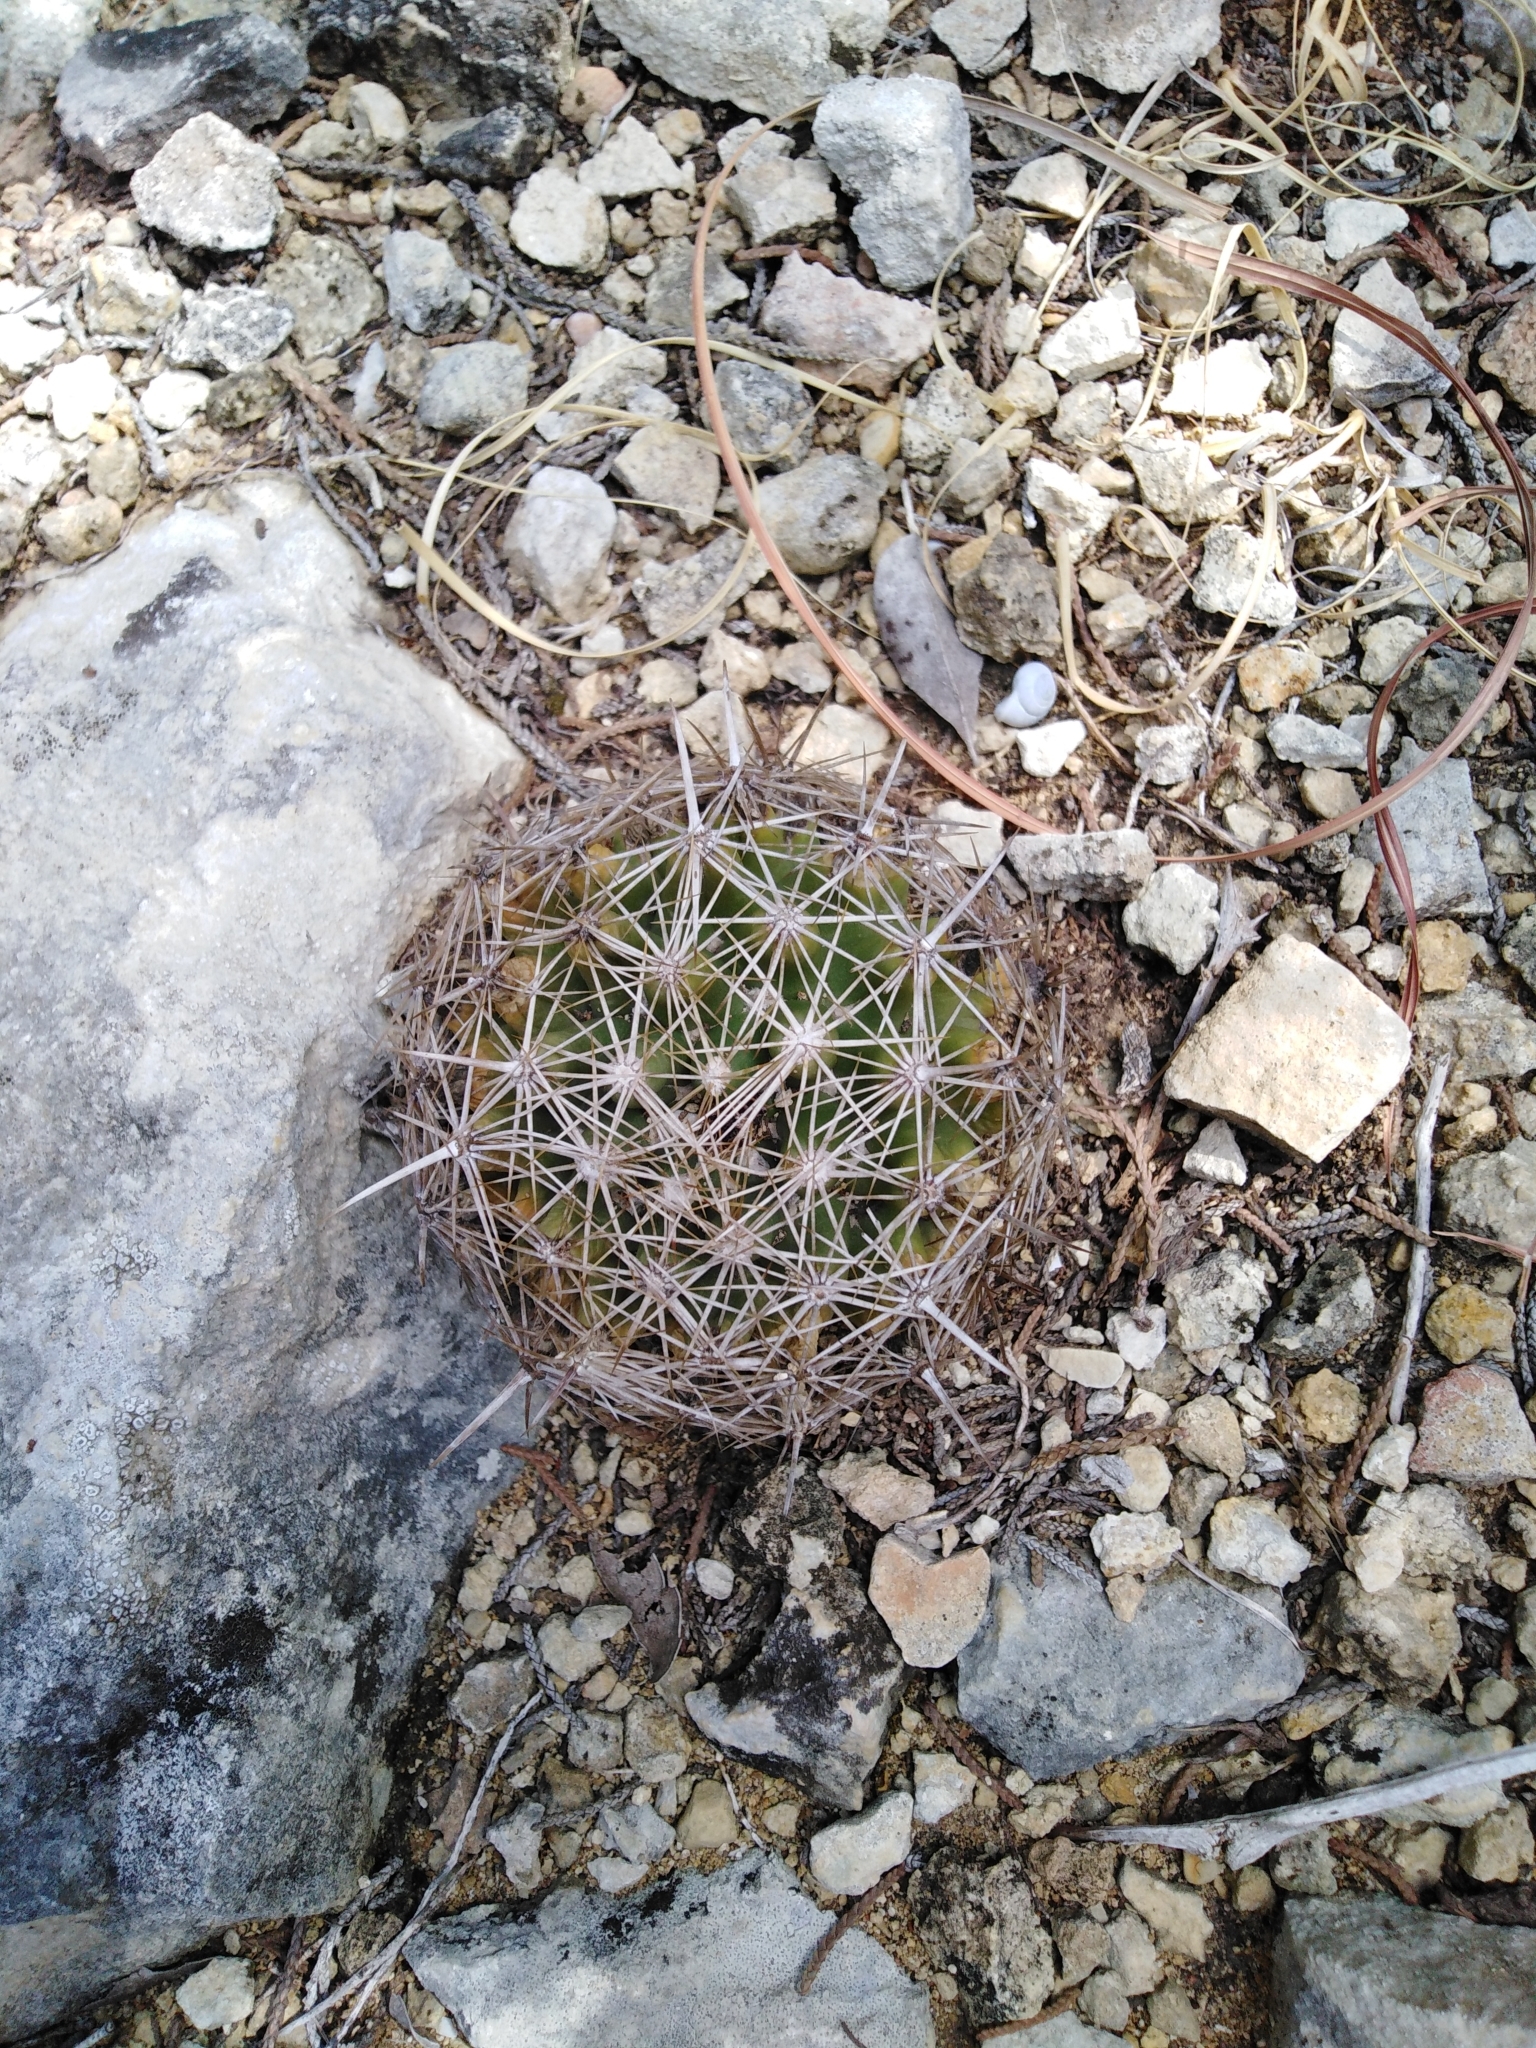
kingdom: Plantae
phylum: Tracheophyta
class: Magnoliopsida
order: Caryophyllales
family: Cactaceae
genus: Coryphantha
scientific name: Coryphantha sulcata
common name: Finger cactus
